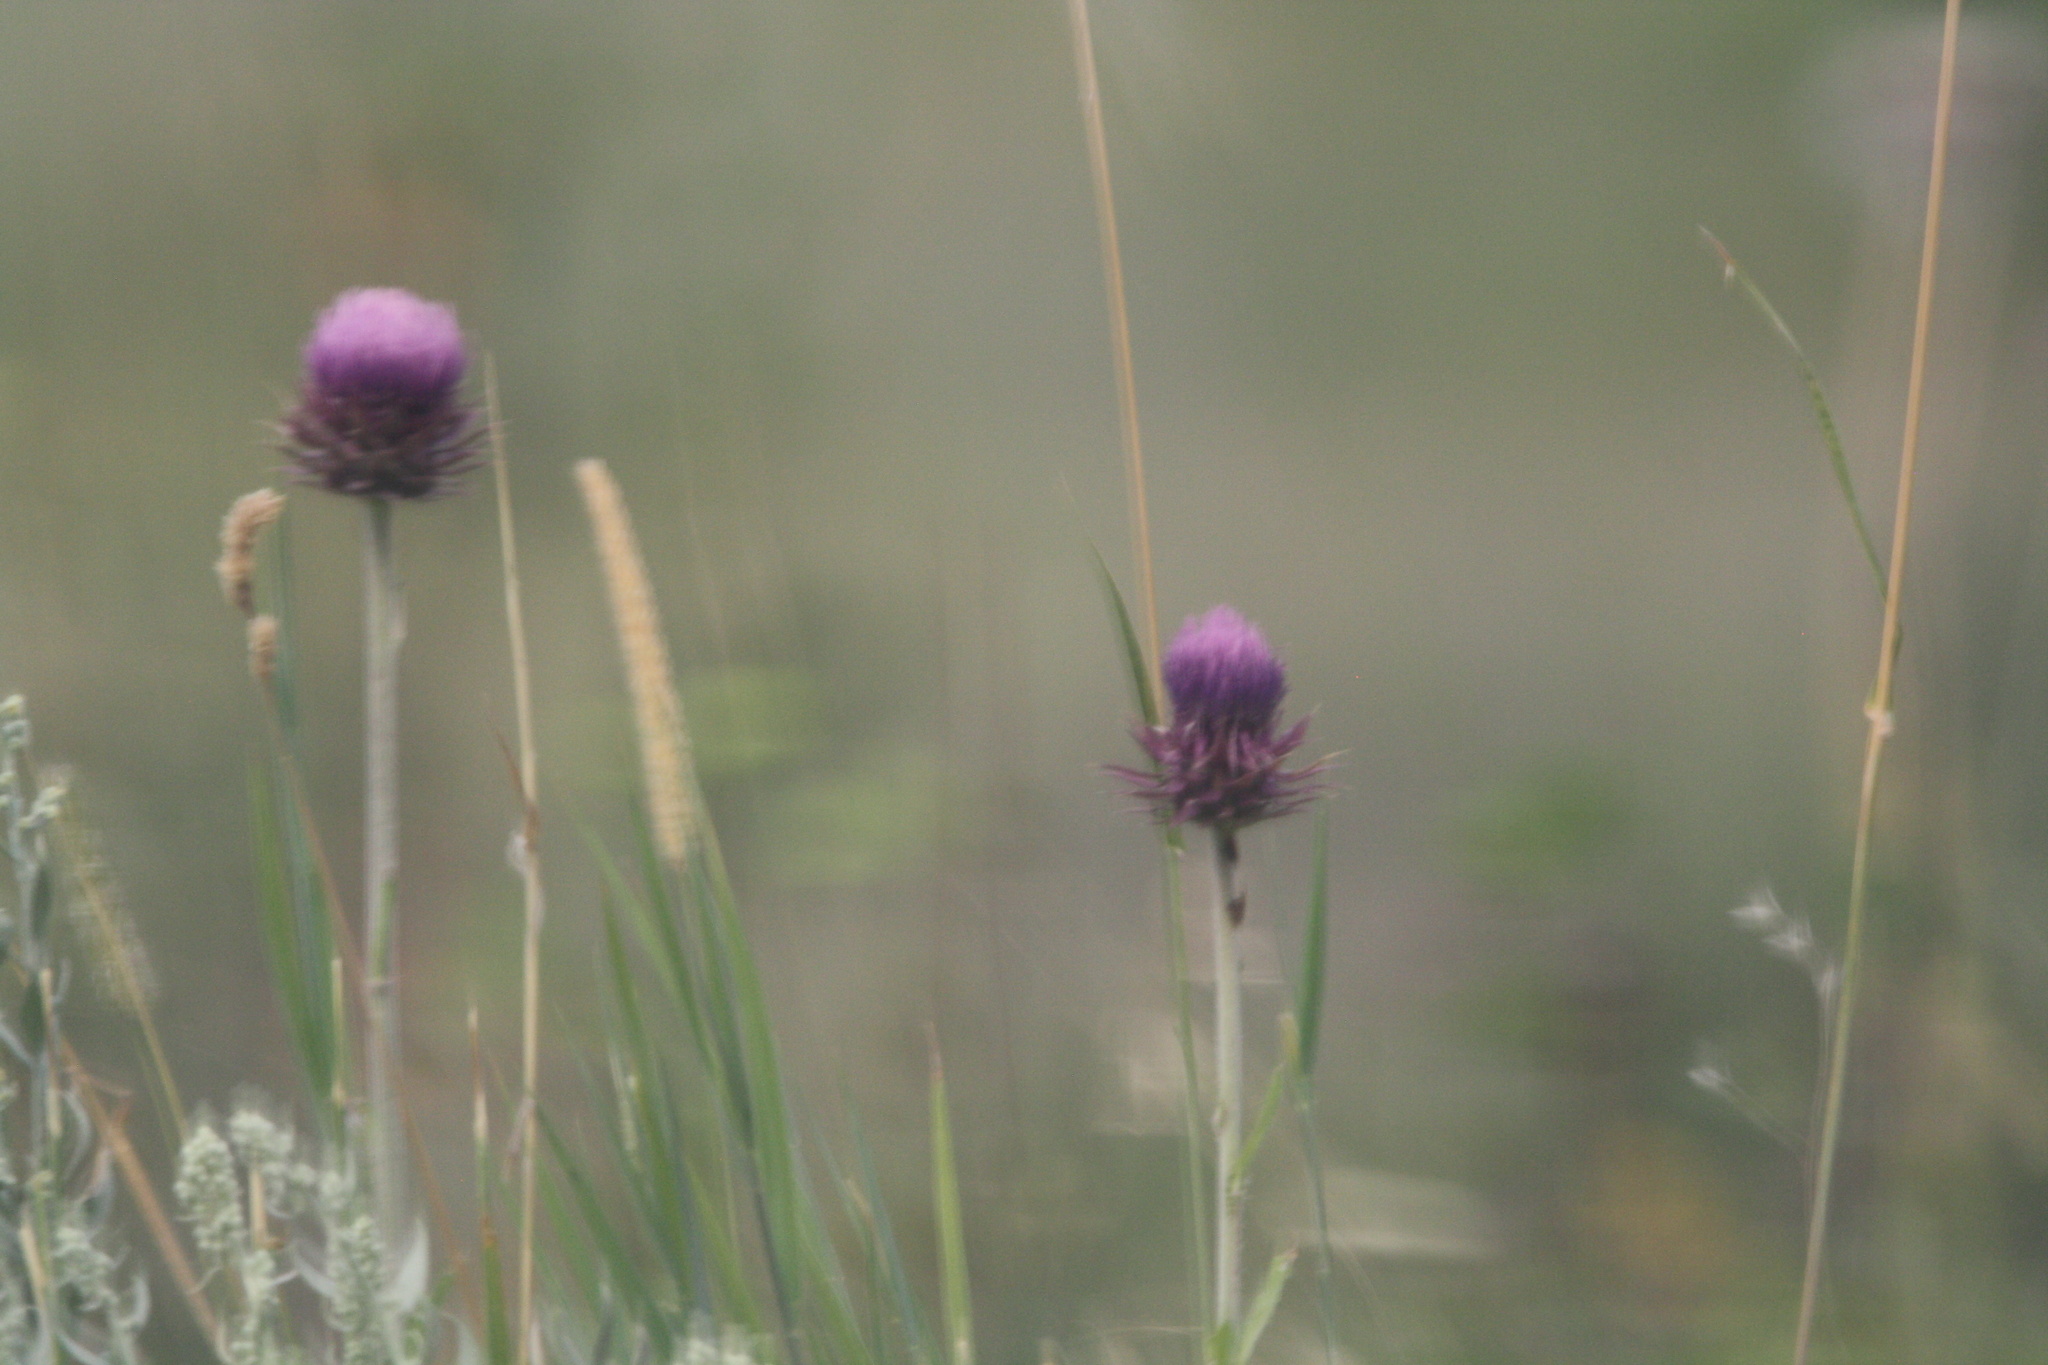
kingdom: Plantae
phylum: Tracheophyta
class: Magnoliopsida
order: Asterales
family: Asteraceae
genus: Carduus
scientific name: Carduus nutans
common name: Musk thistle
